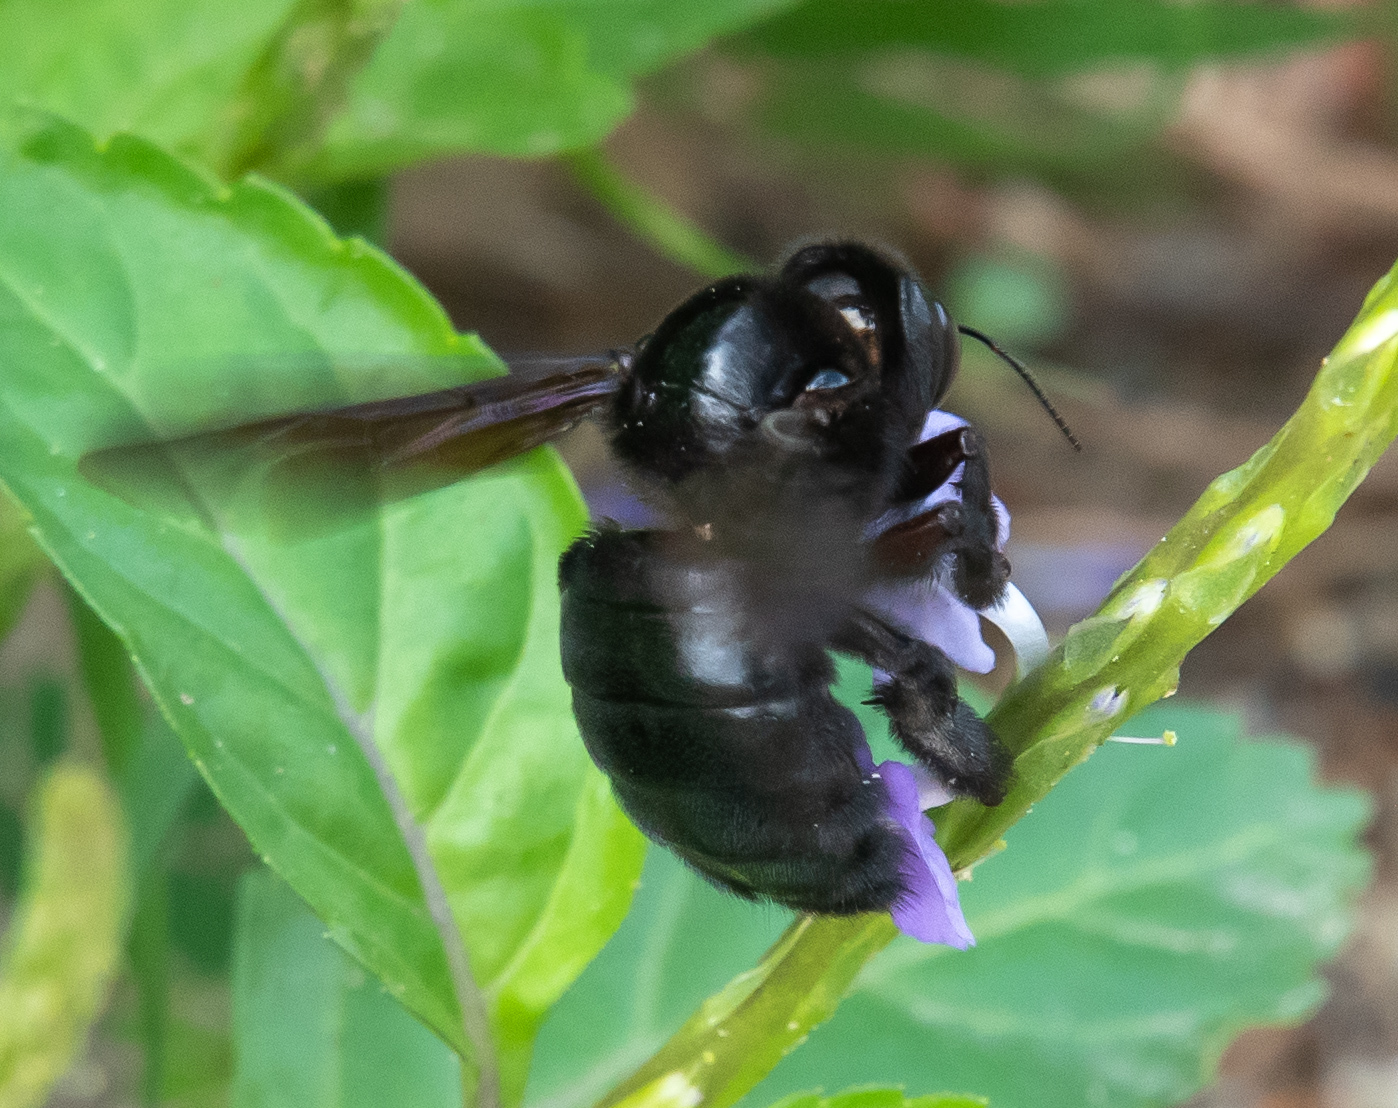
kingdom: Animalia
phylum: Arthropoda
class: Insecta
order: Hymenoptera
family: Apidae
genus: Xylocopa
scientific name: Xylocopa mordax
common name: Antillean carpenter bee
